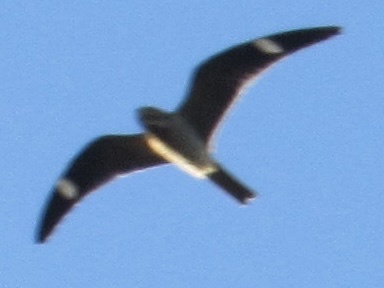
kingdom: Animalia
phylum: Chordata
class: Aves
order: Caprimulgiformes
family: Caprimulgidae
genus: Chordeiles
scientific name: Chordeiles minor
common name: Common nighthawk
